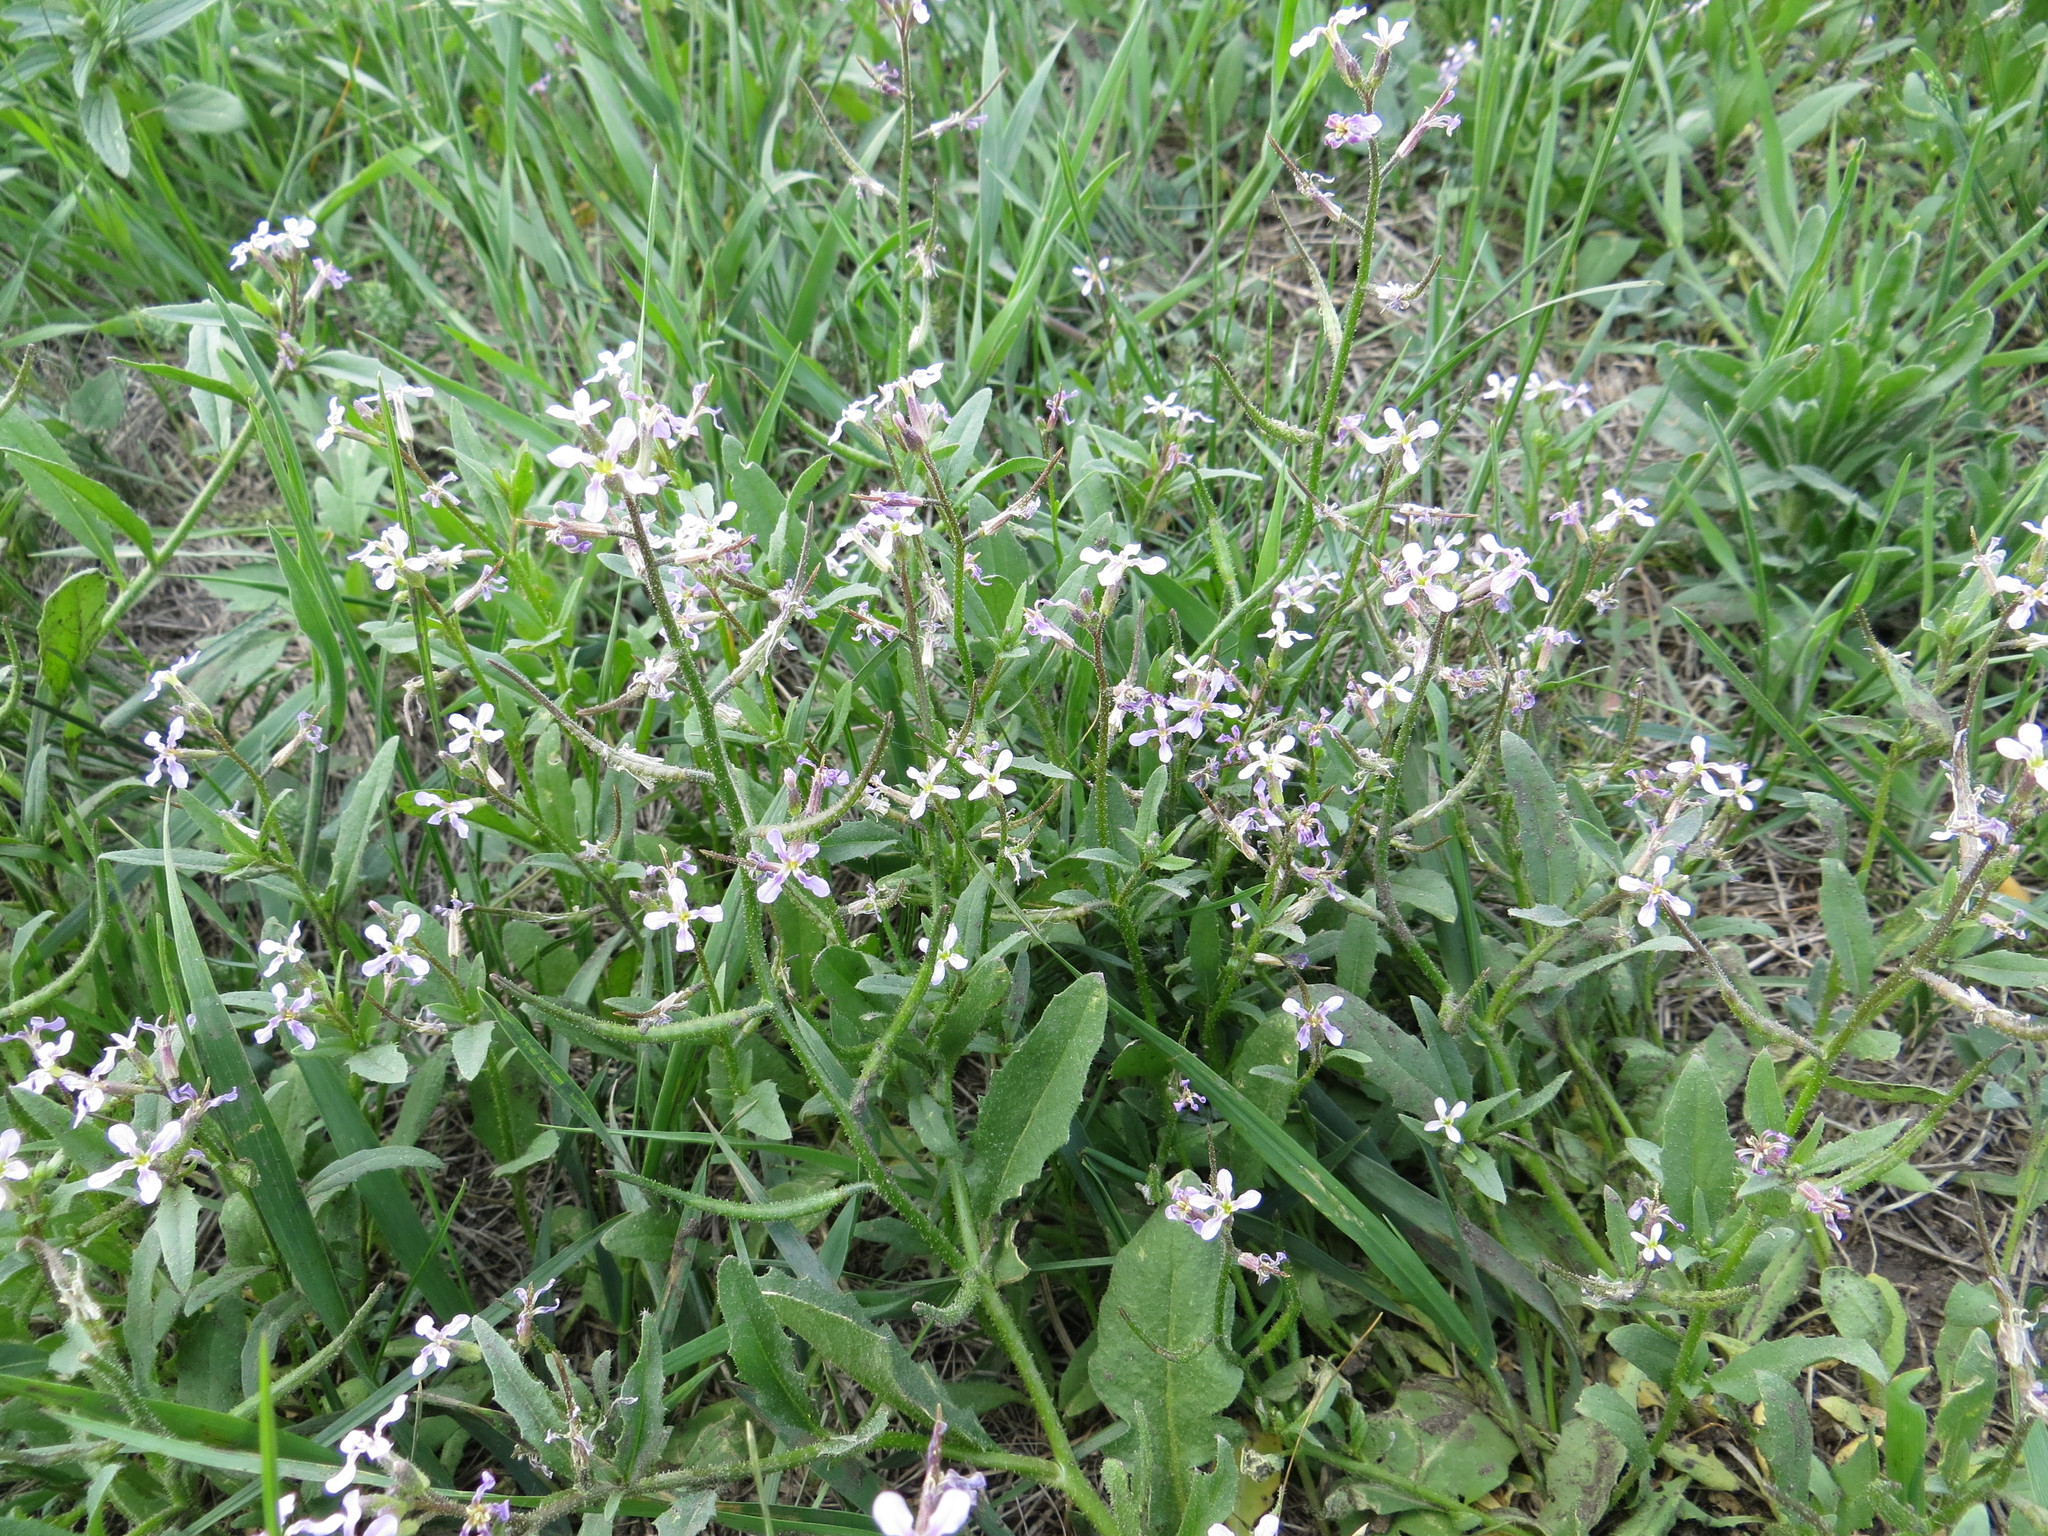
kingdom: Plantae
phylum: Tracheophyta
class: Magnoliopsida
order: Brassicales
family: Brassicaceae
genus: Chorispora
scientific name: Chorispora tenella
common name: Crossflower
